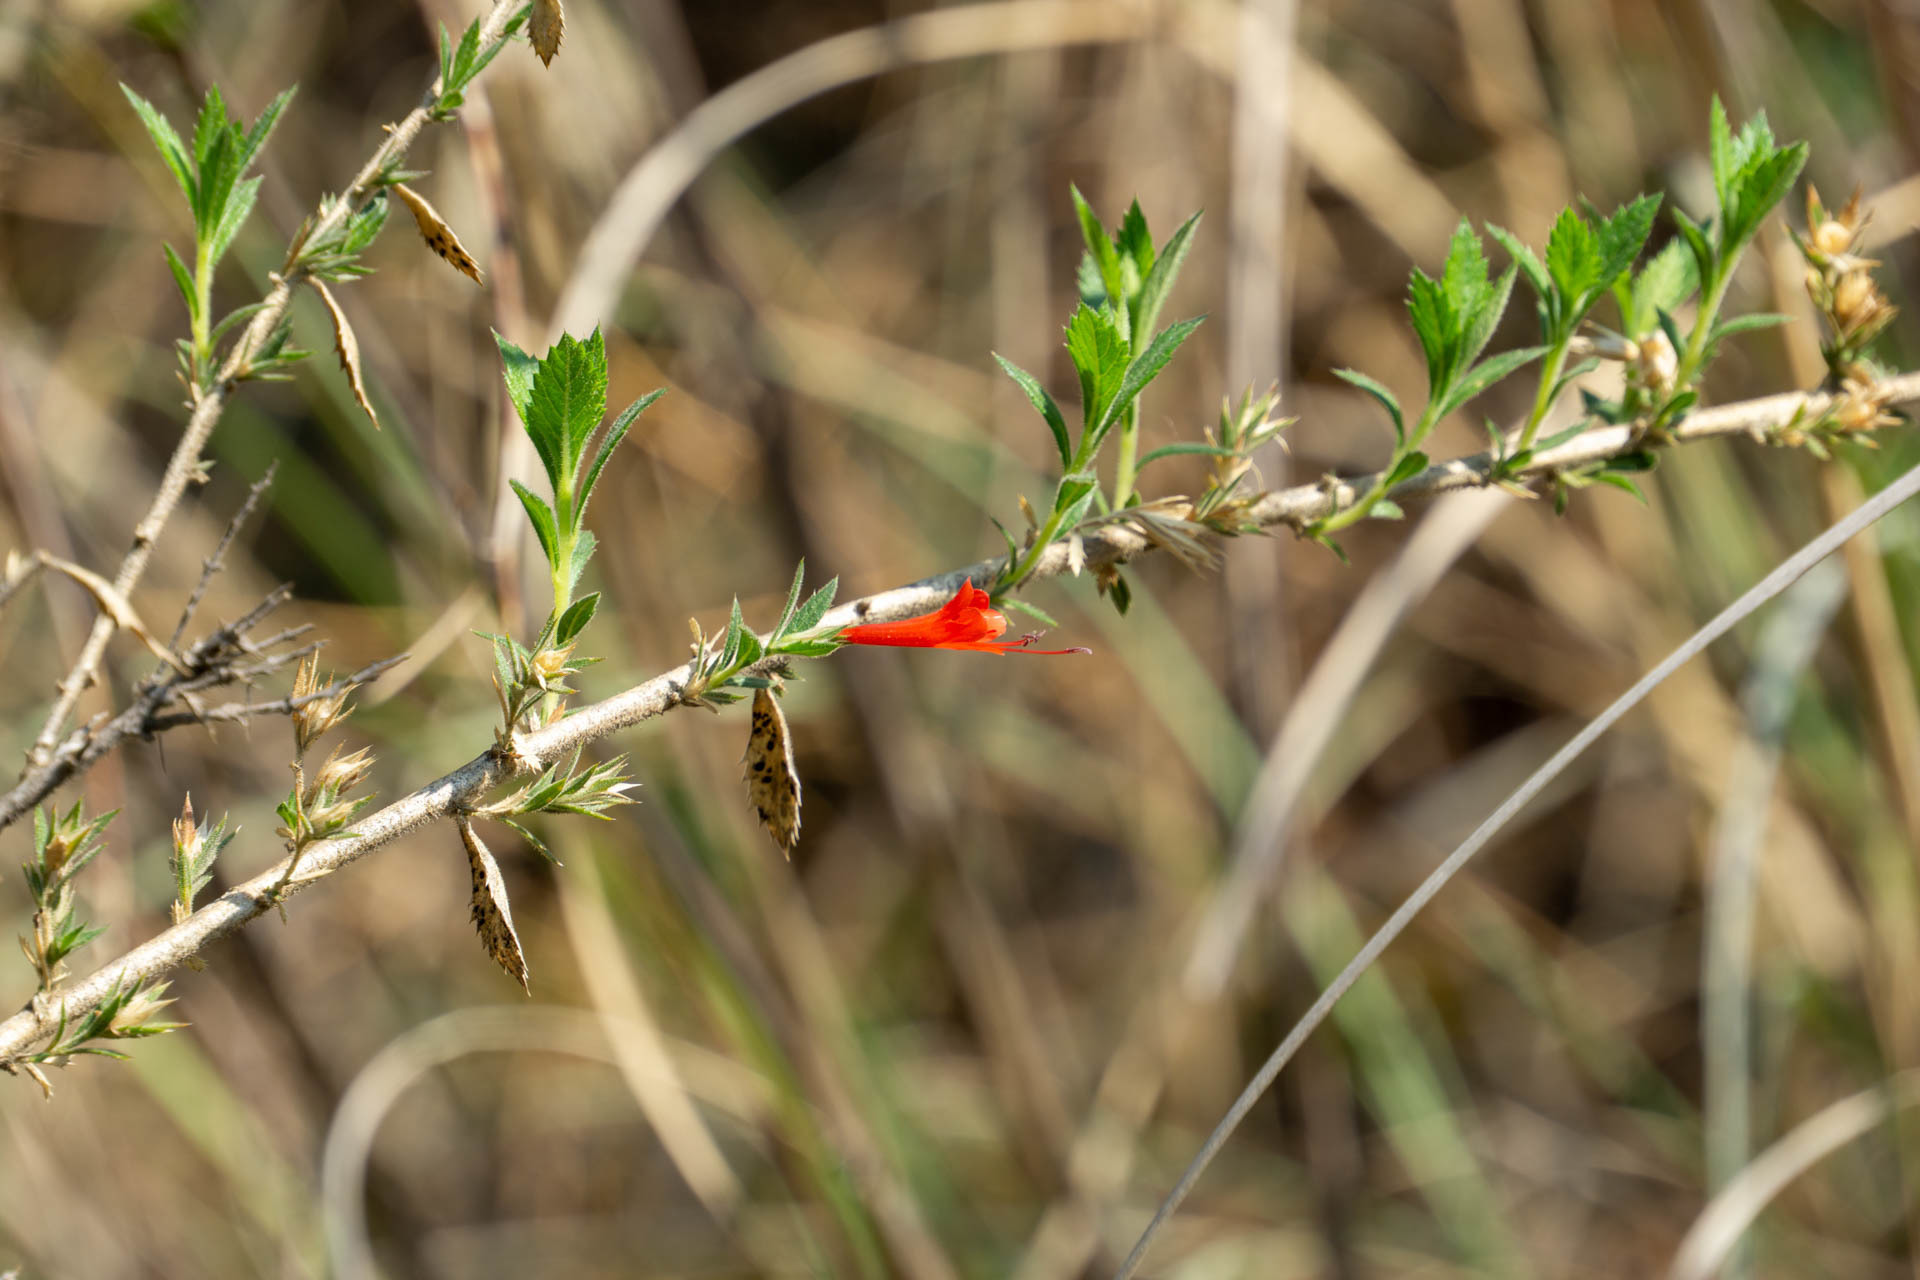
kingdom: Plantae
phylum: Tracheophyta
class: Magnoliopsida
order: Ericales
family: Polemoniaceae
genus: Loeselia
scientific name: Loeselia mexicana
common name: Mexican false calico
